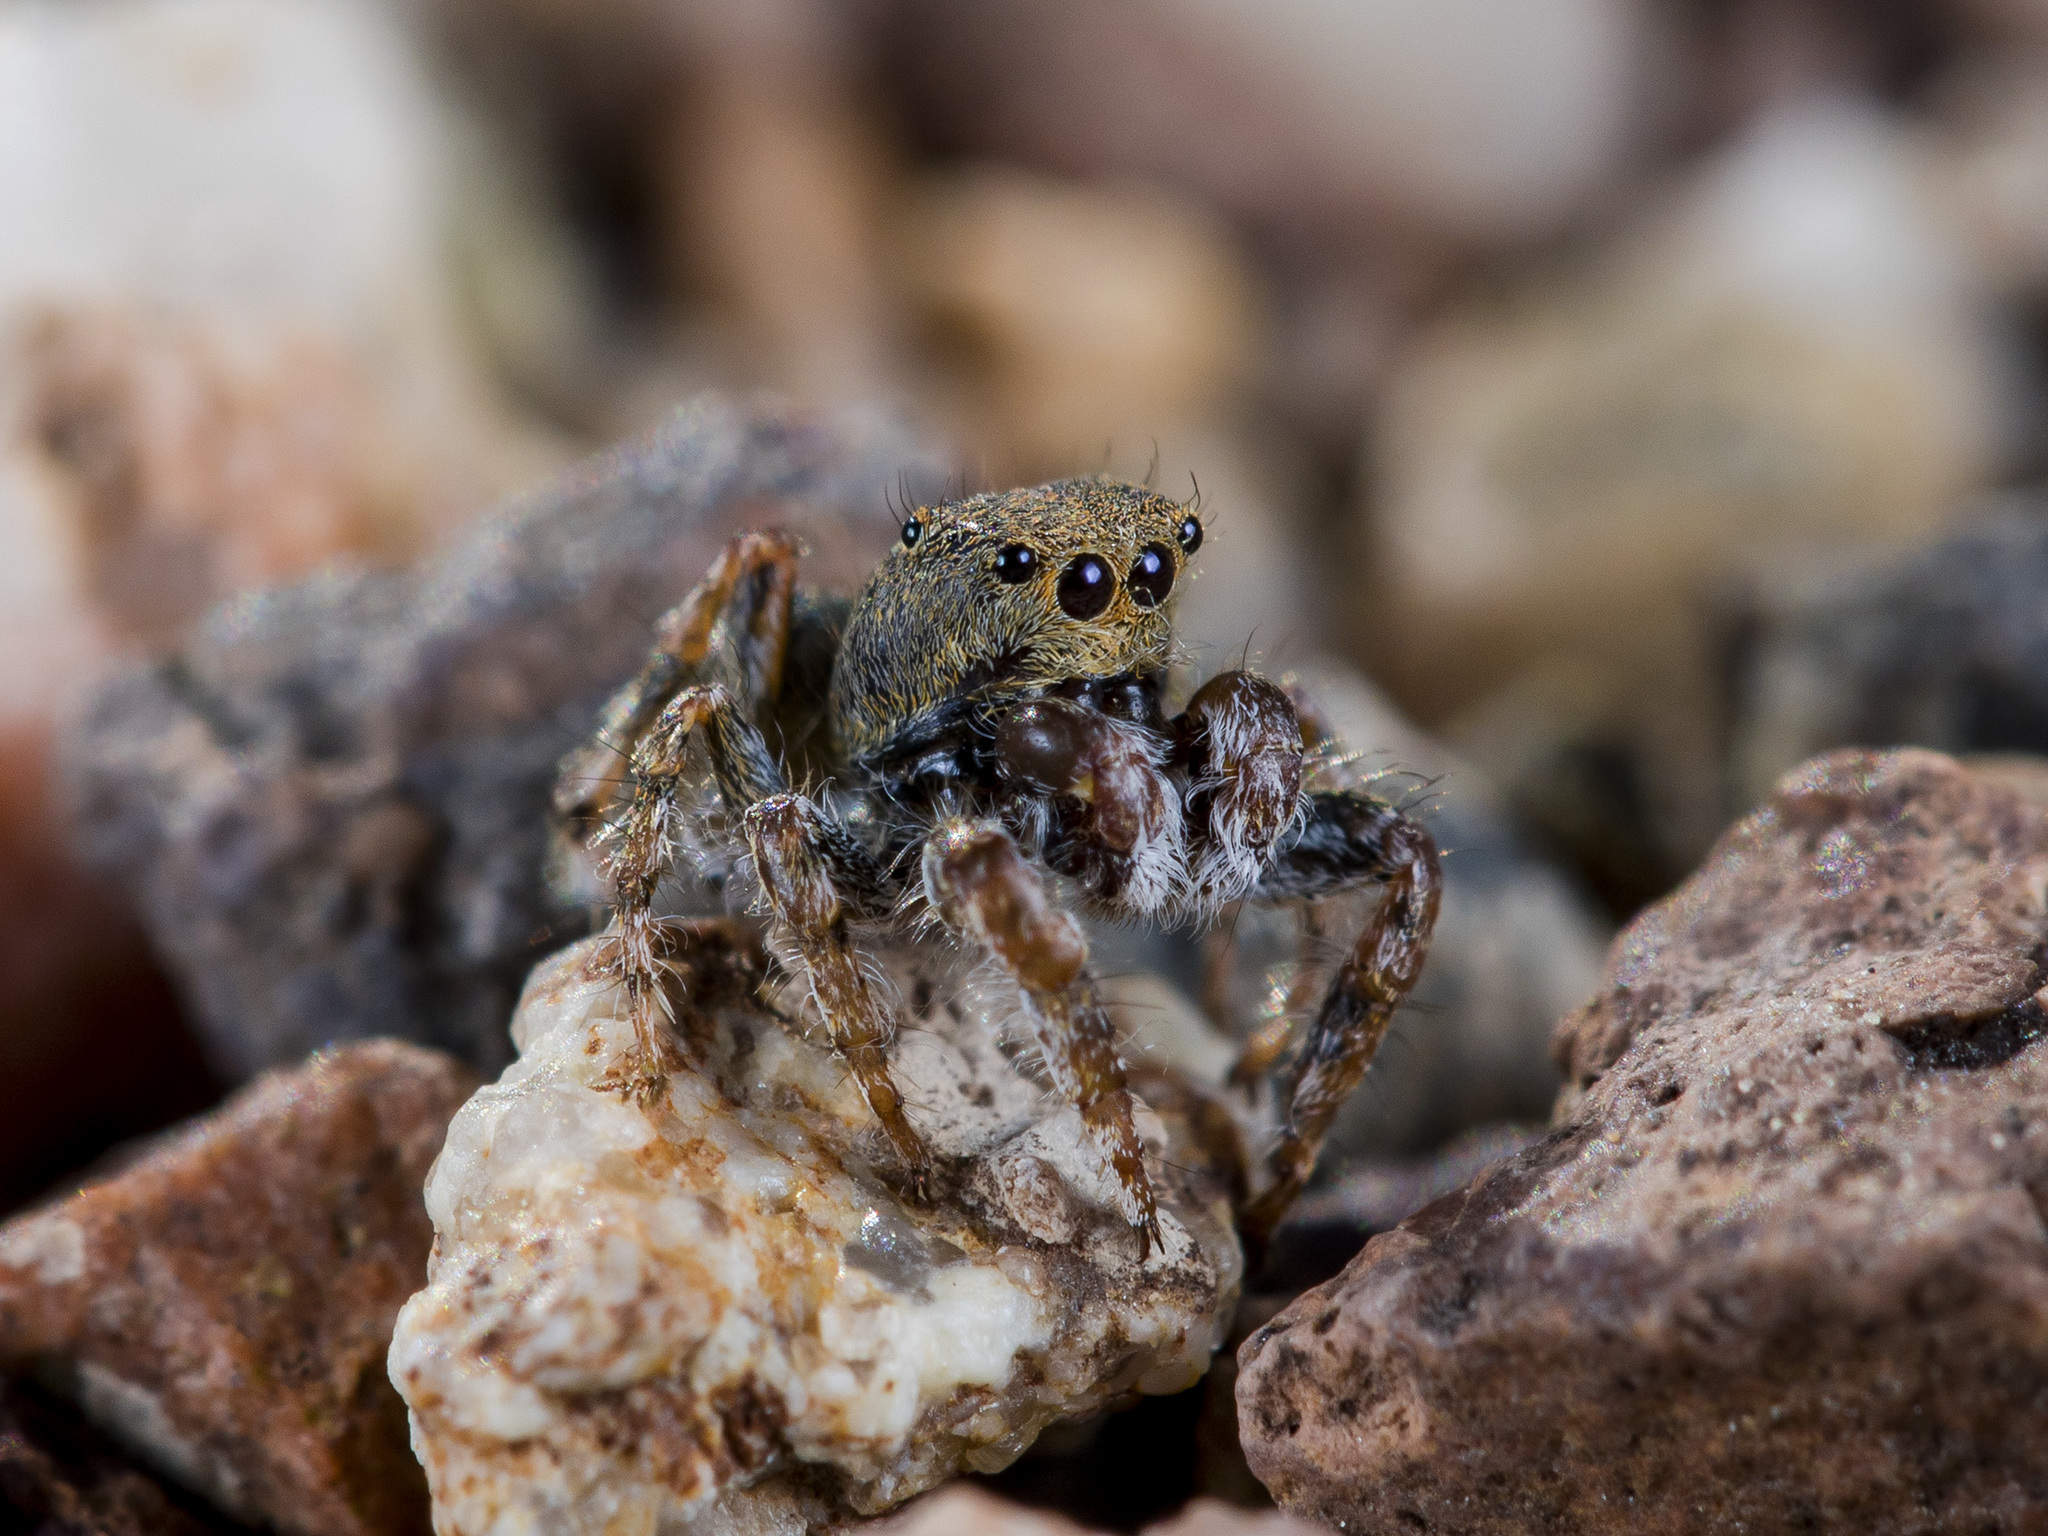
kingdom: Animalia
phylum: Arthropoda
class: Arachnida
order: Araneae
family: Salticidae
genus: Yllenus
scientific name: Yllenus zyuzini
